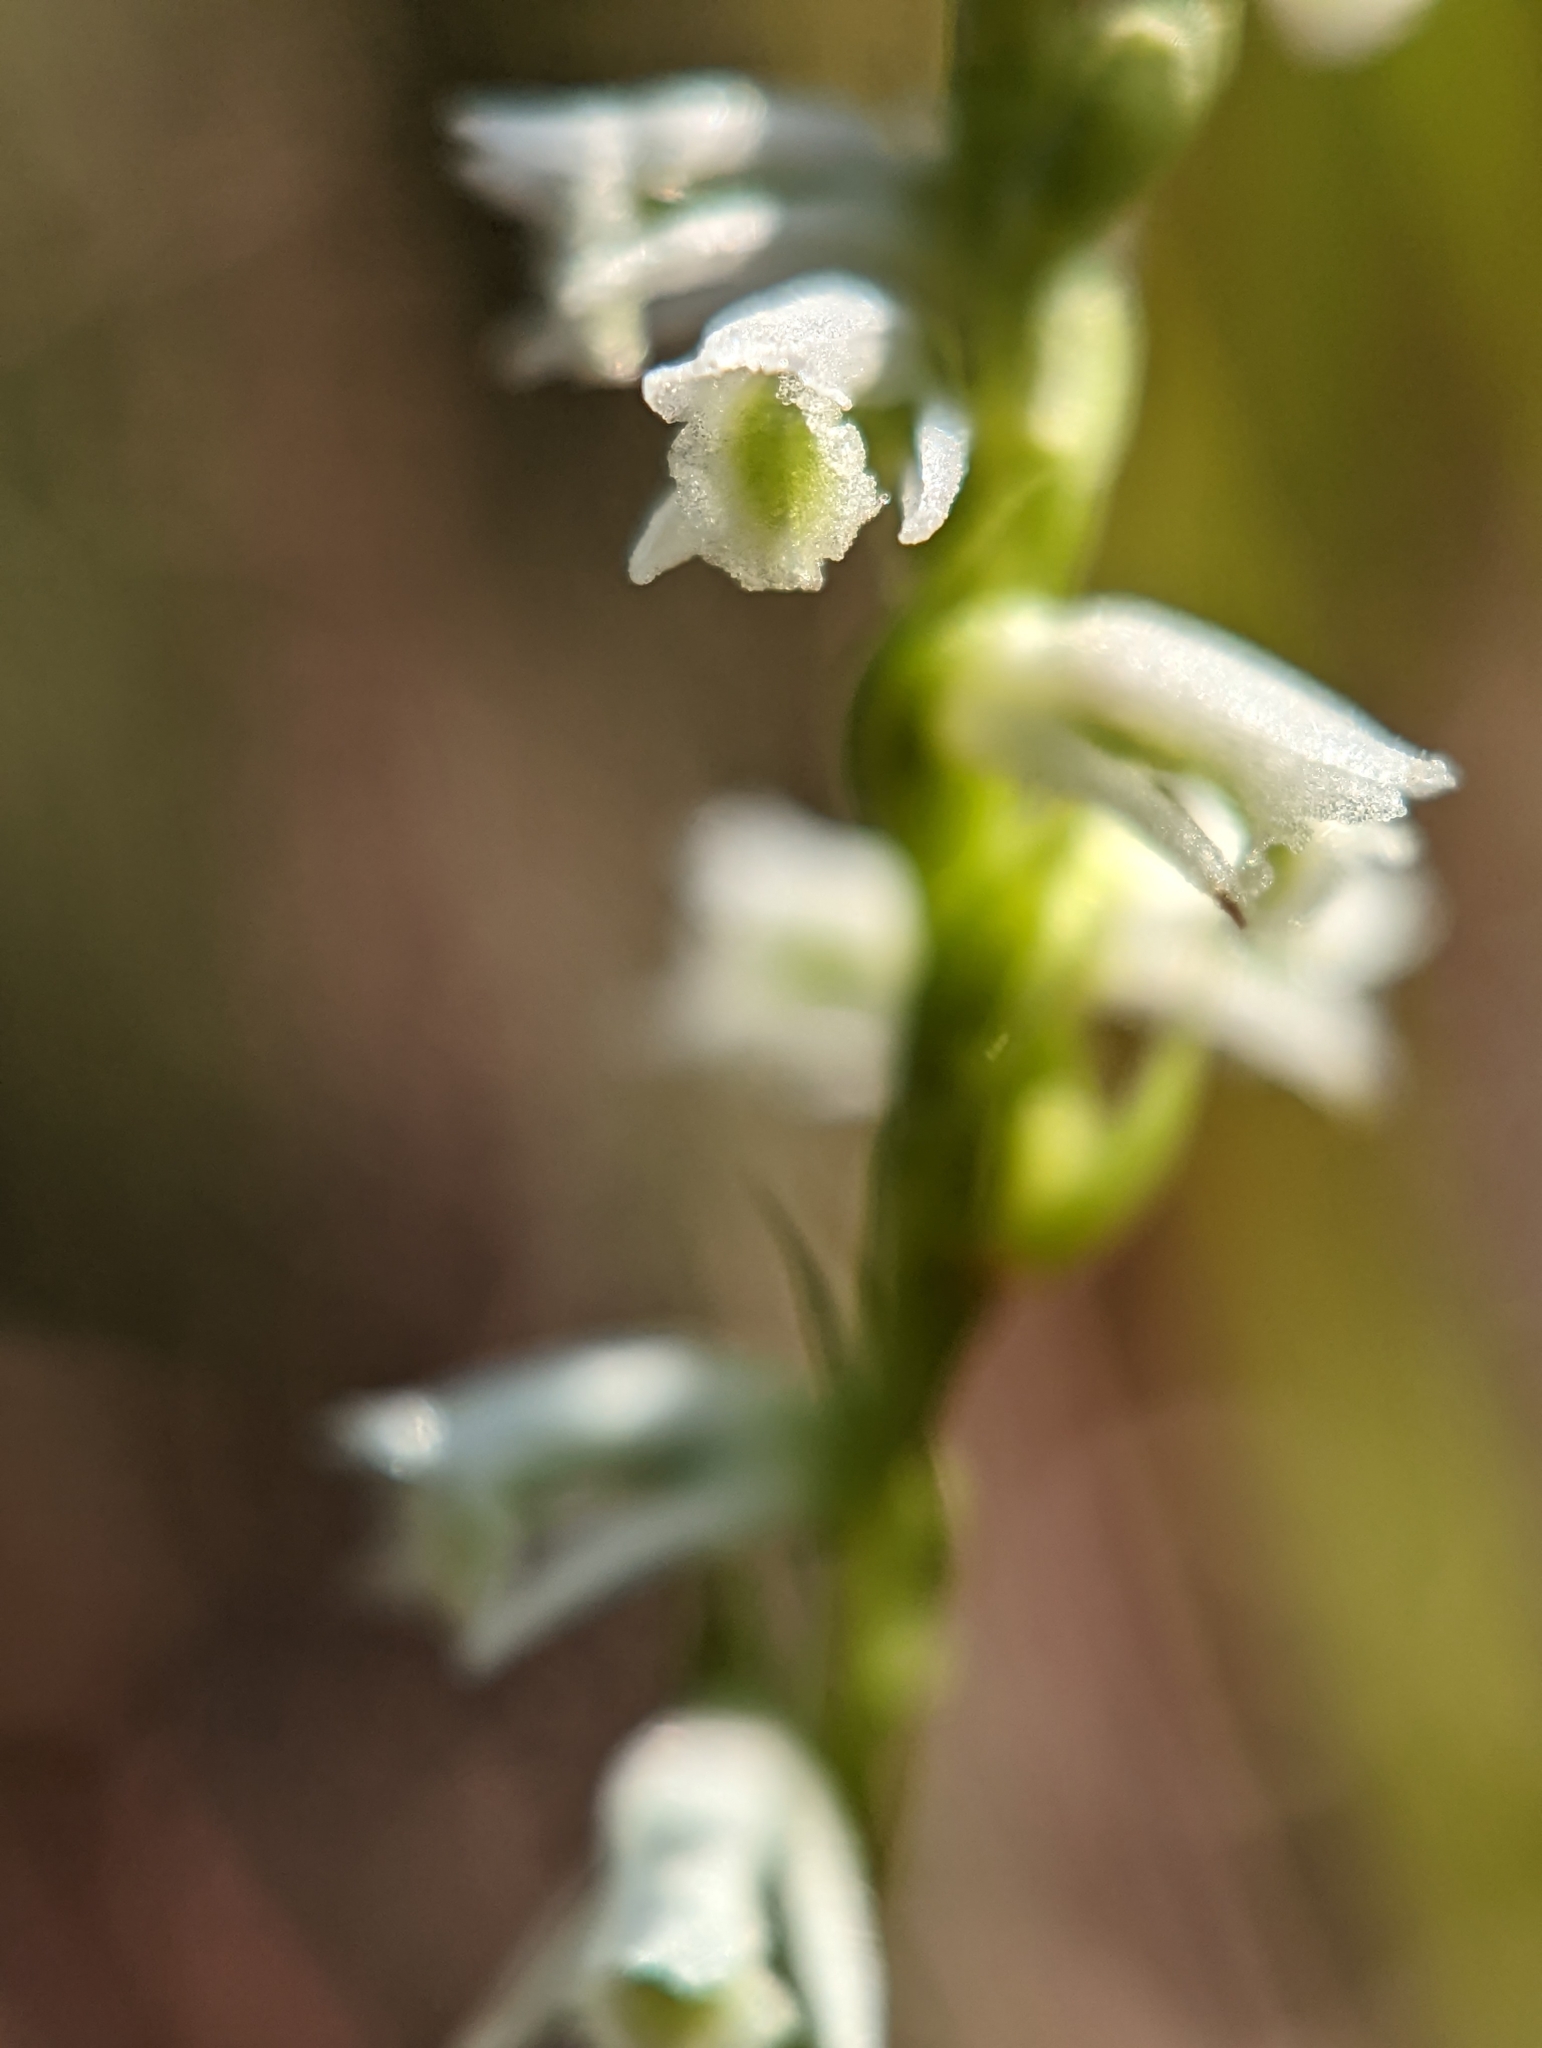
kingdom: Plantae
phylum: Tracheophyta
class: Liliopsida
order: Asparagales
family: Orchidaceae
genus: Spiranthes
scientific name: Spiranthes lacera
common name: Northern slender ladies'-tresses
